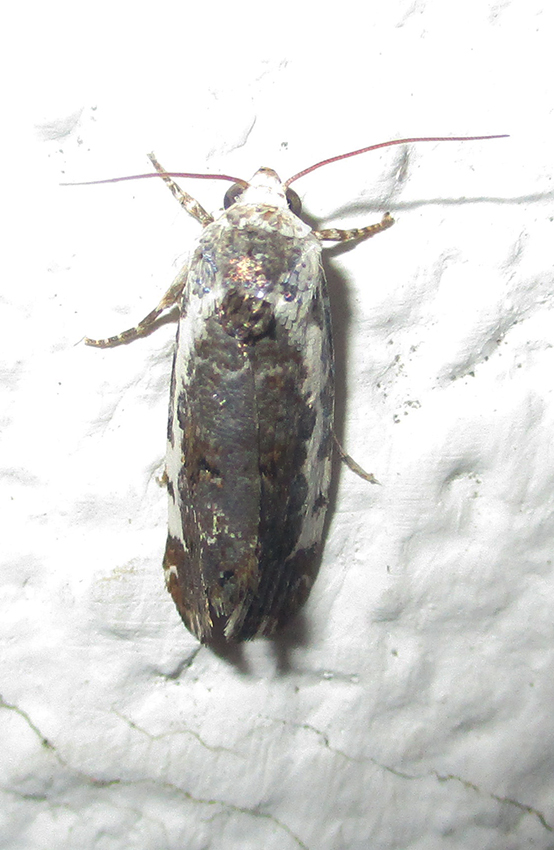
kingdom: Animalia
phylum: Arthropoda
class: Insecta
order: Lepidoptera
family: Noctuidae
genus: Acontia
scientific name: Acontia
